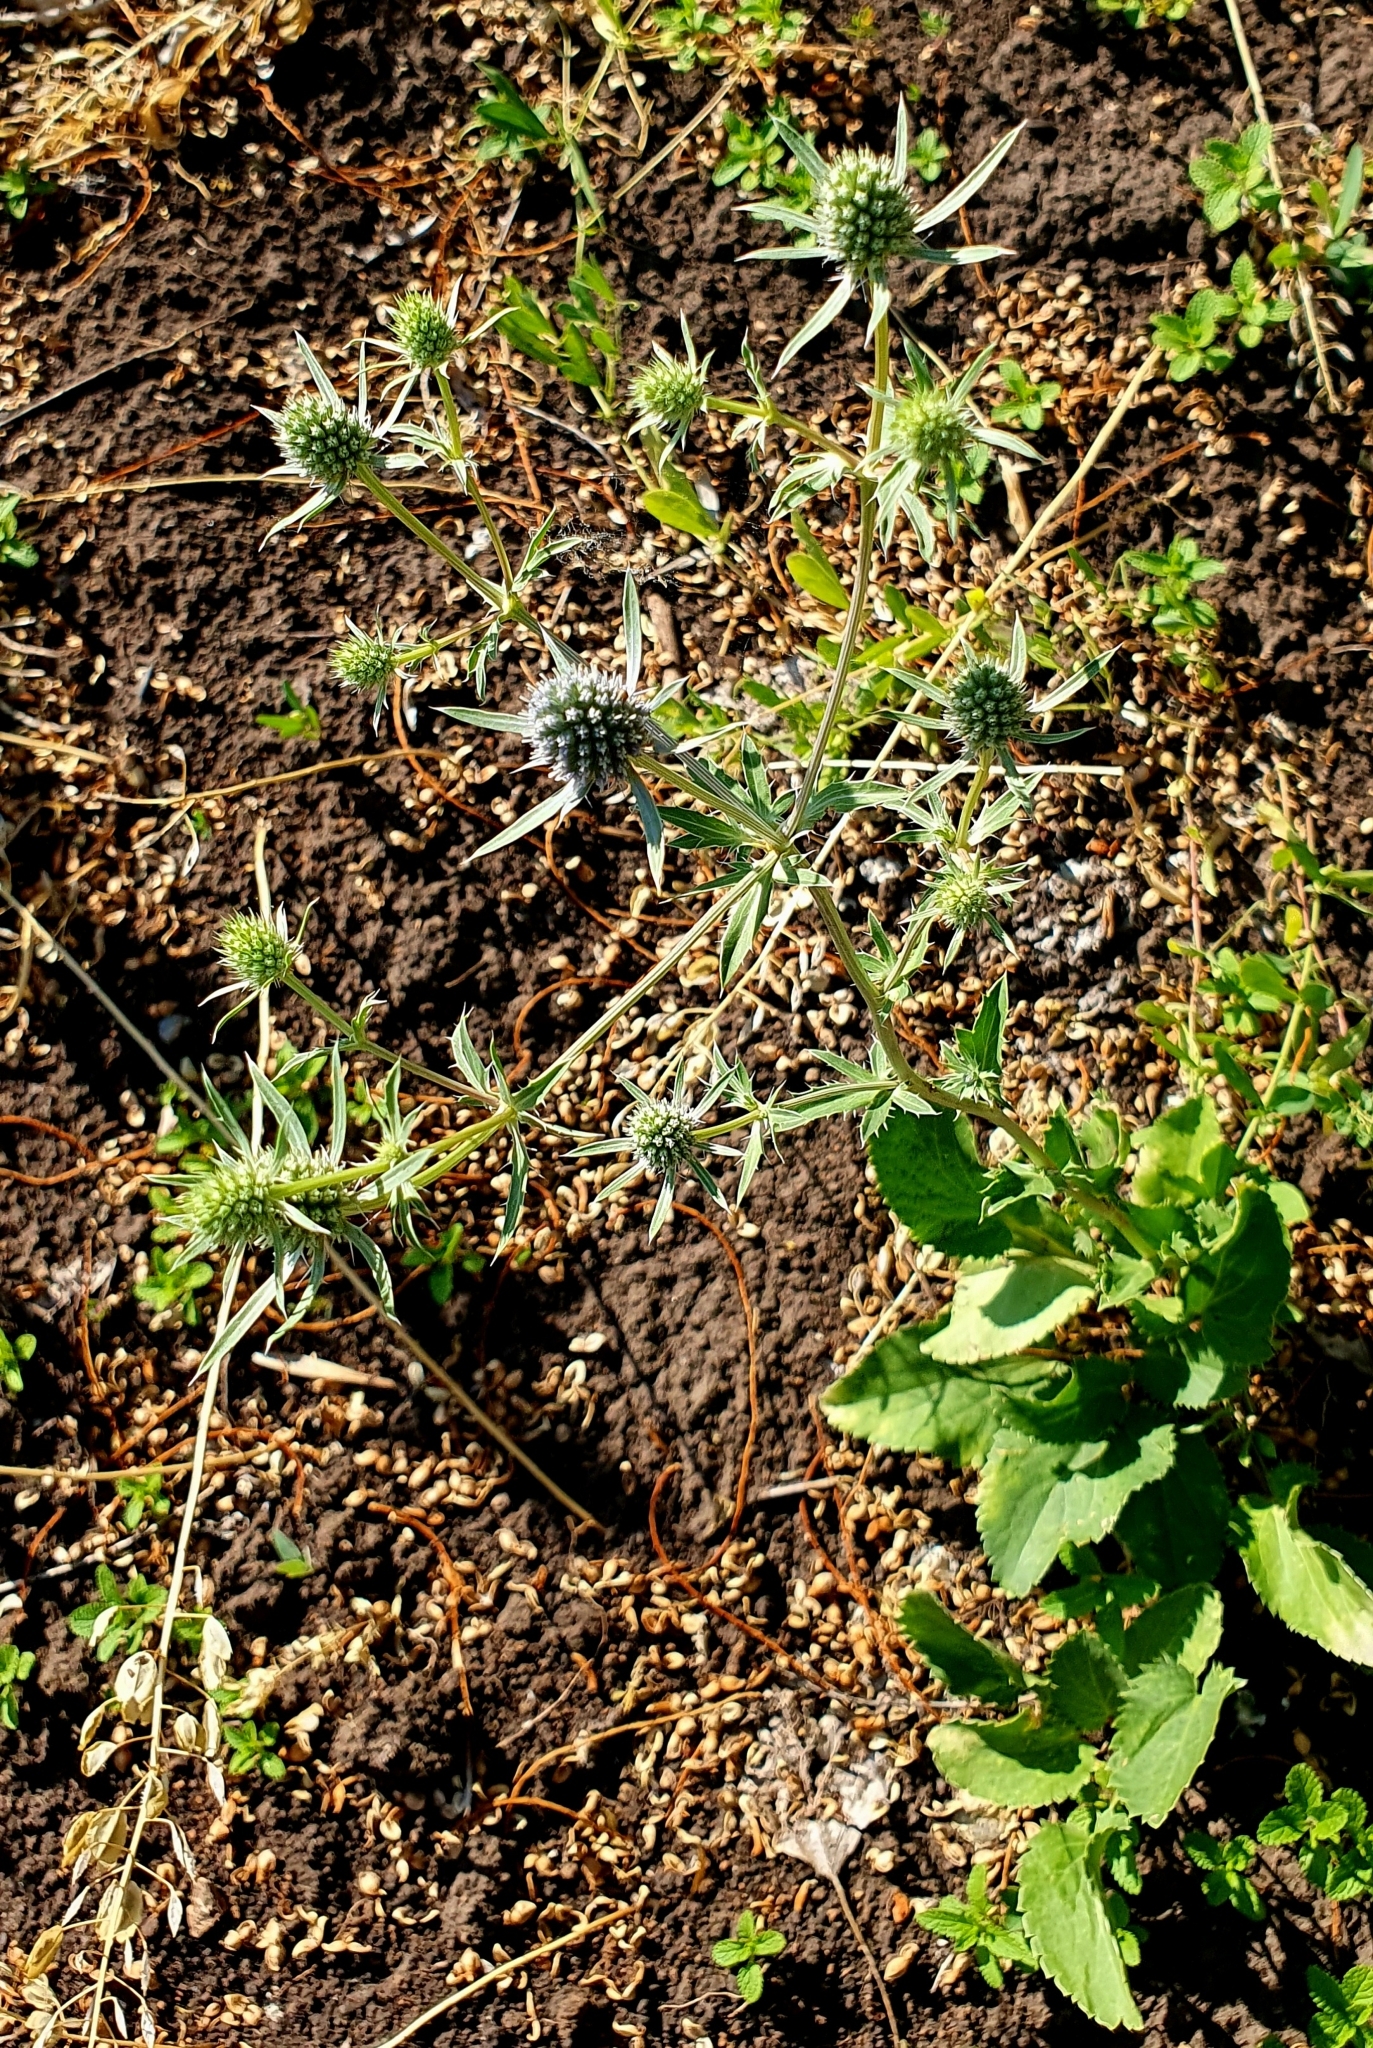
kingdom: Plantae
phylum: Tracheophyta
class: Magnoliopsida
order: Apiales
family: Apiaceae
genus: Eryngium
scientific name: Eryngium planum
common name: Blue eryngo
